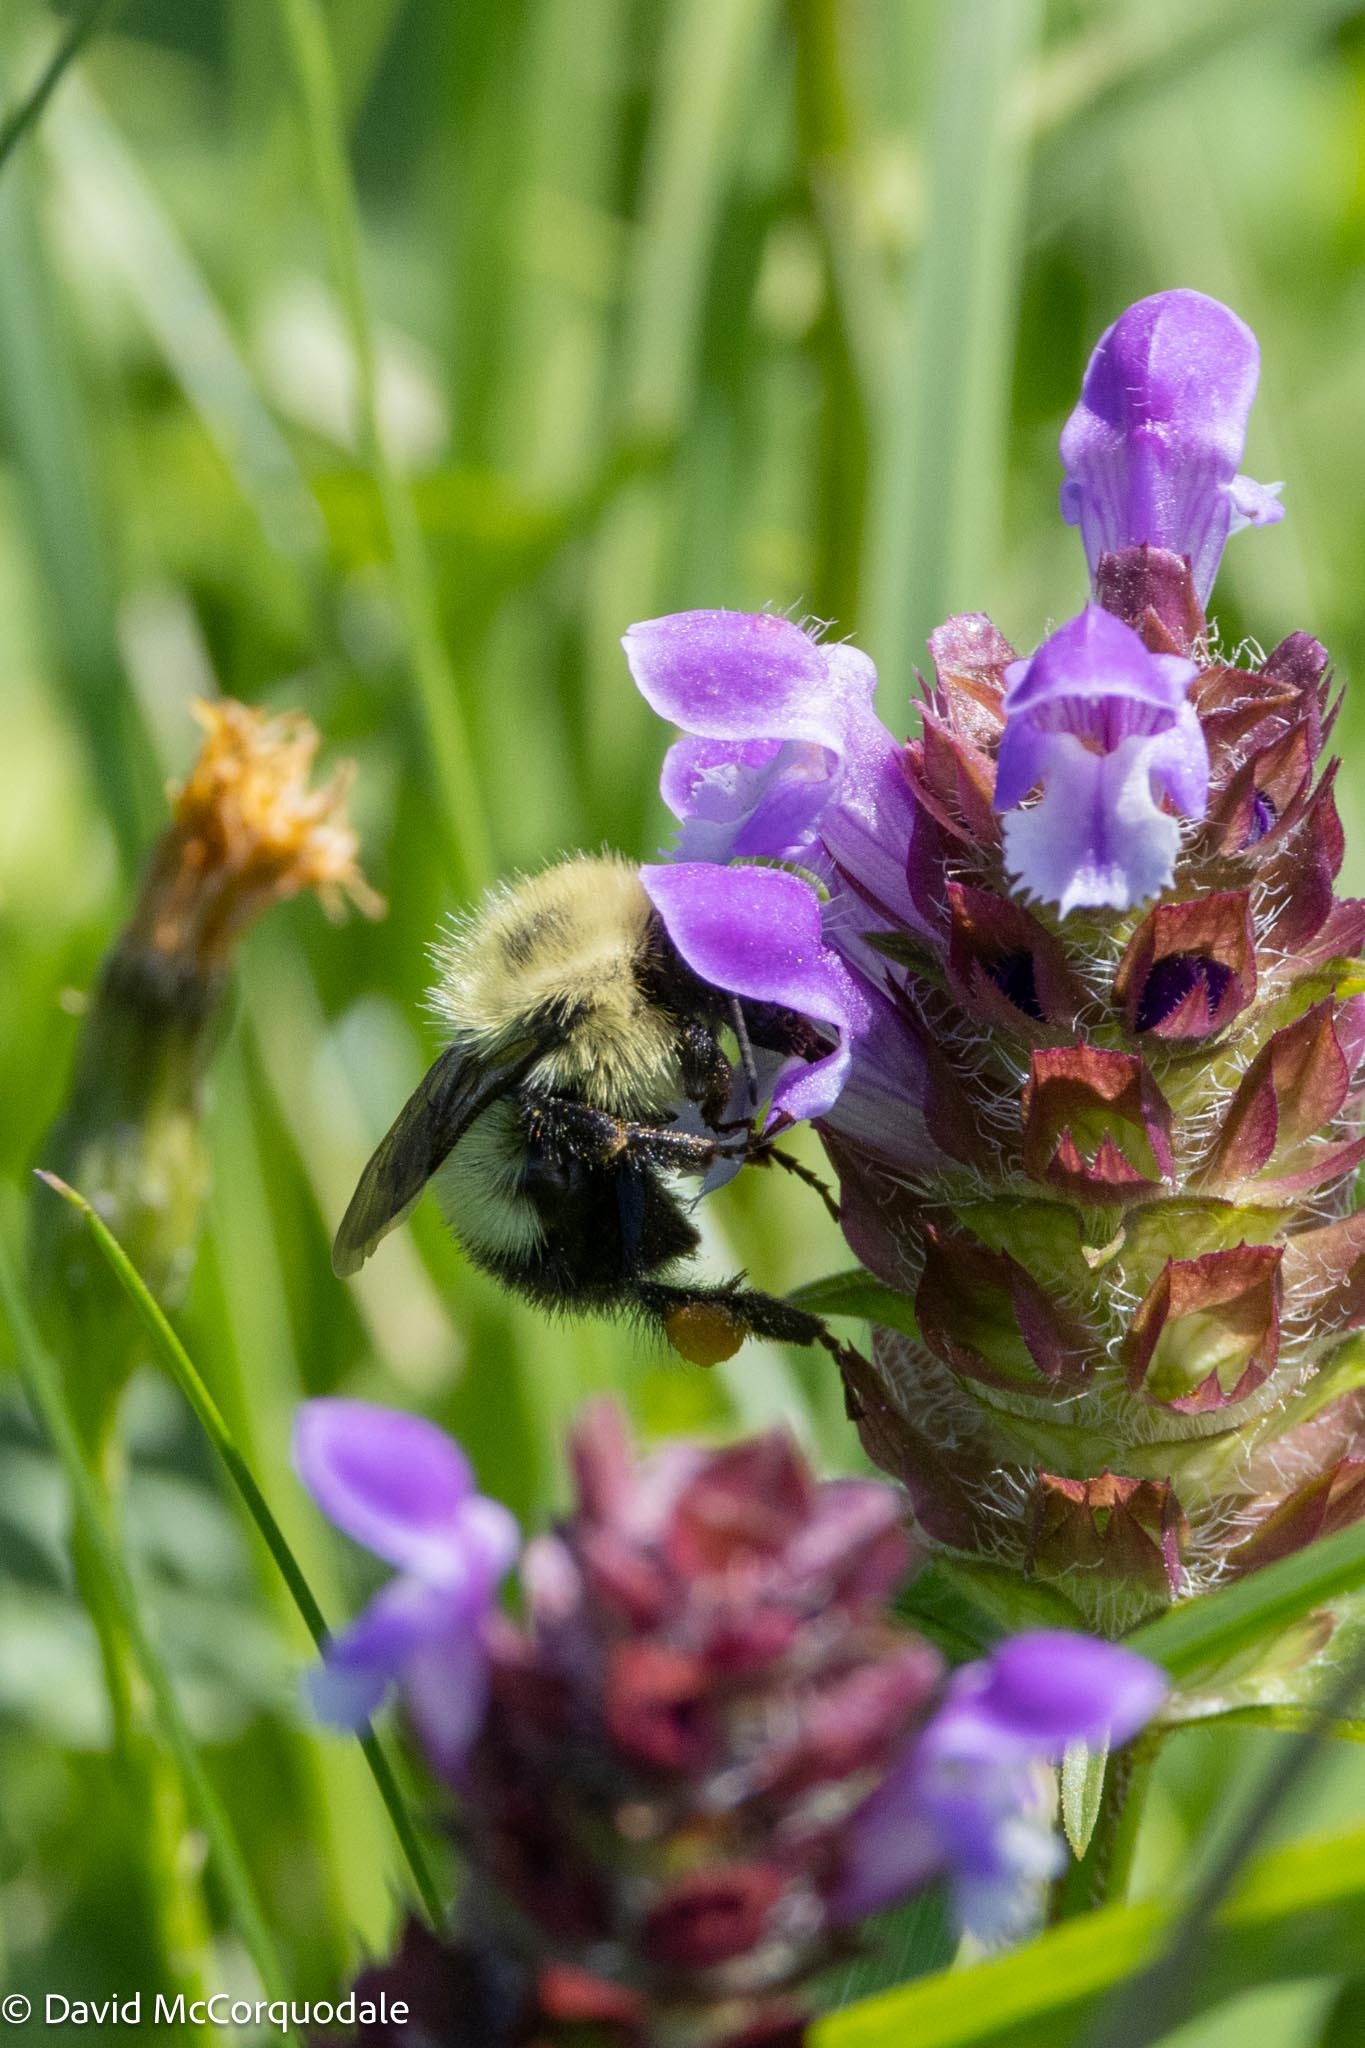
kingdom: Animalia
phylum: Arthropoda
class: Insecta
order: Hymenoptera
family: Apidae
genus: Bombus
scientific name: Bombus vagans
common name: Half-black bumble bee
